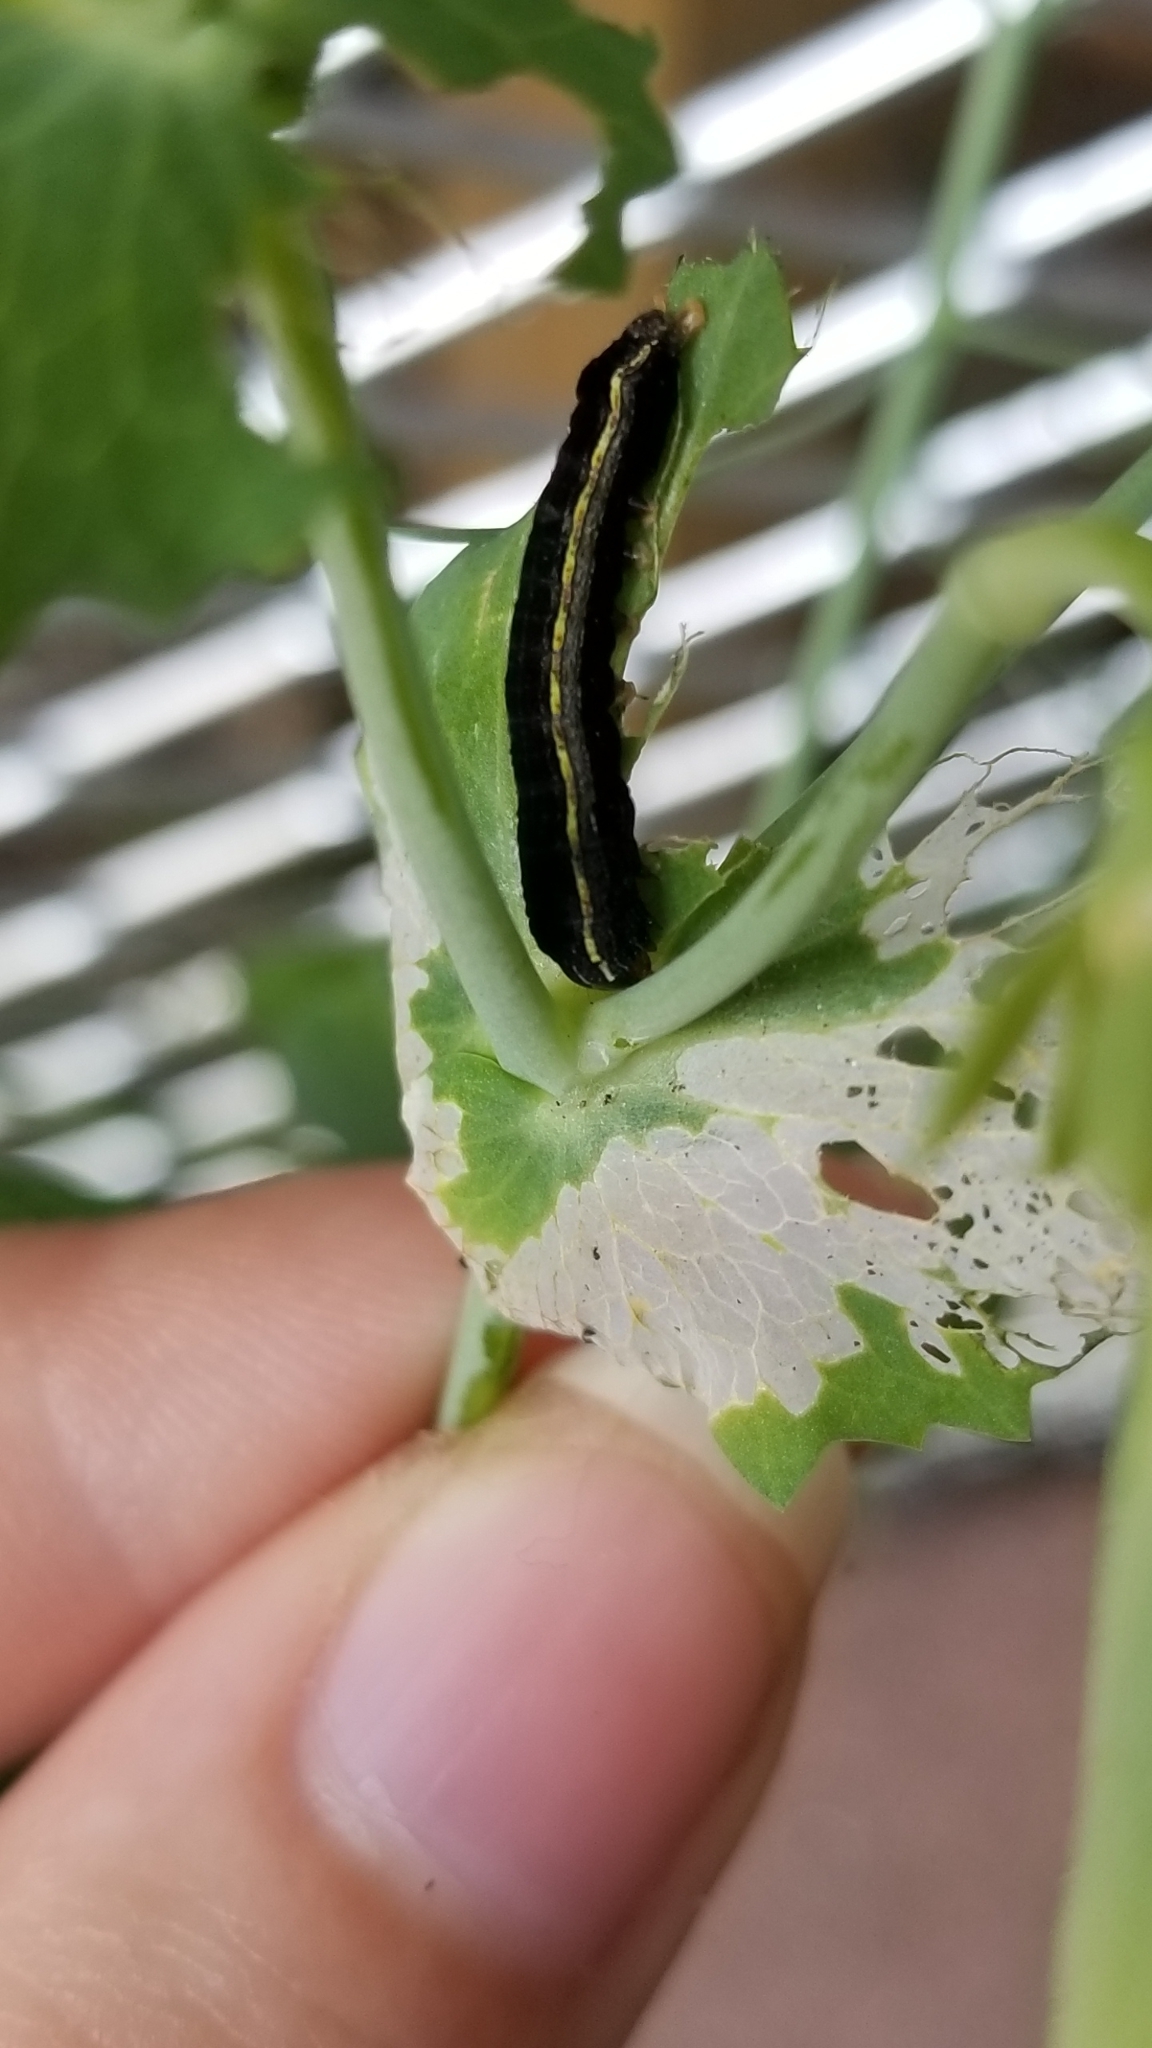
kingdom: Animalia
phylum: Arthropoda
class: Insecta
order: Lepidoptera
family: Noctuidae
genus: Spodoptera
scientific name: Spodoptera ornithogalli
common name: Yellow-striped armyworm
